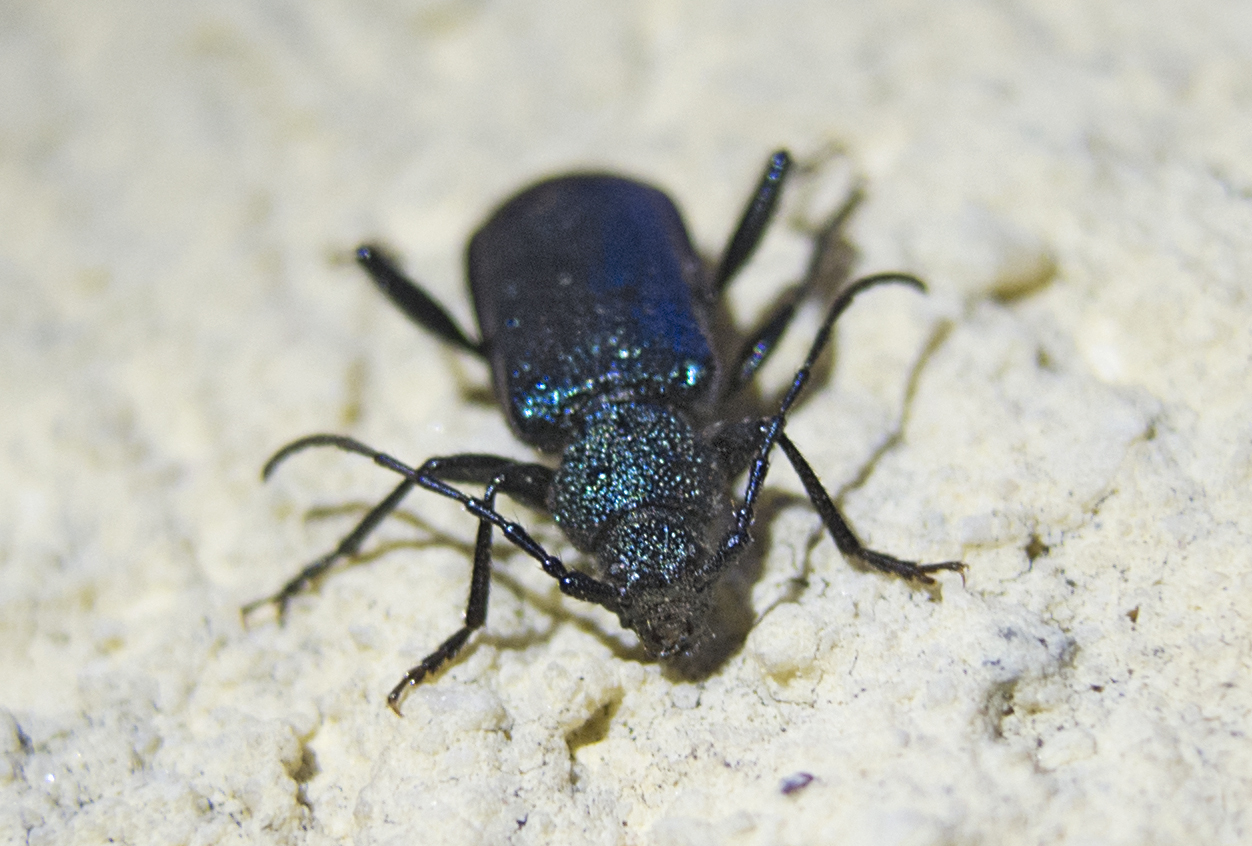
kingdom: Animalia
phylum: Arthropoda
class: Insecta
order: Coleoptera
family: Cerambycidae
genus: Callidium
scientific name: Callidium violaceum
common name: Violet tanbark beetle
